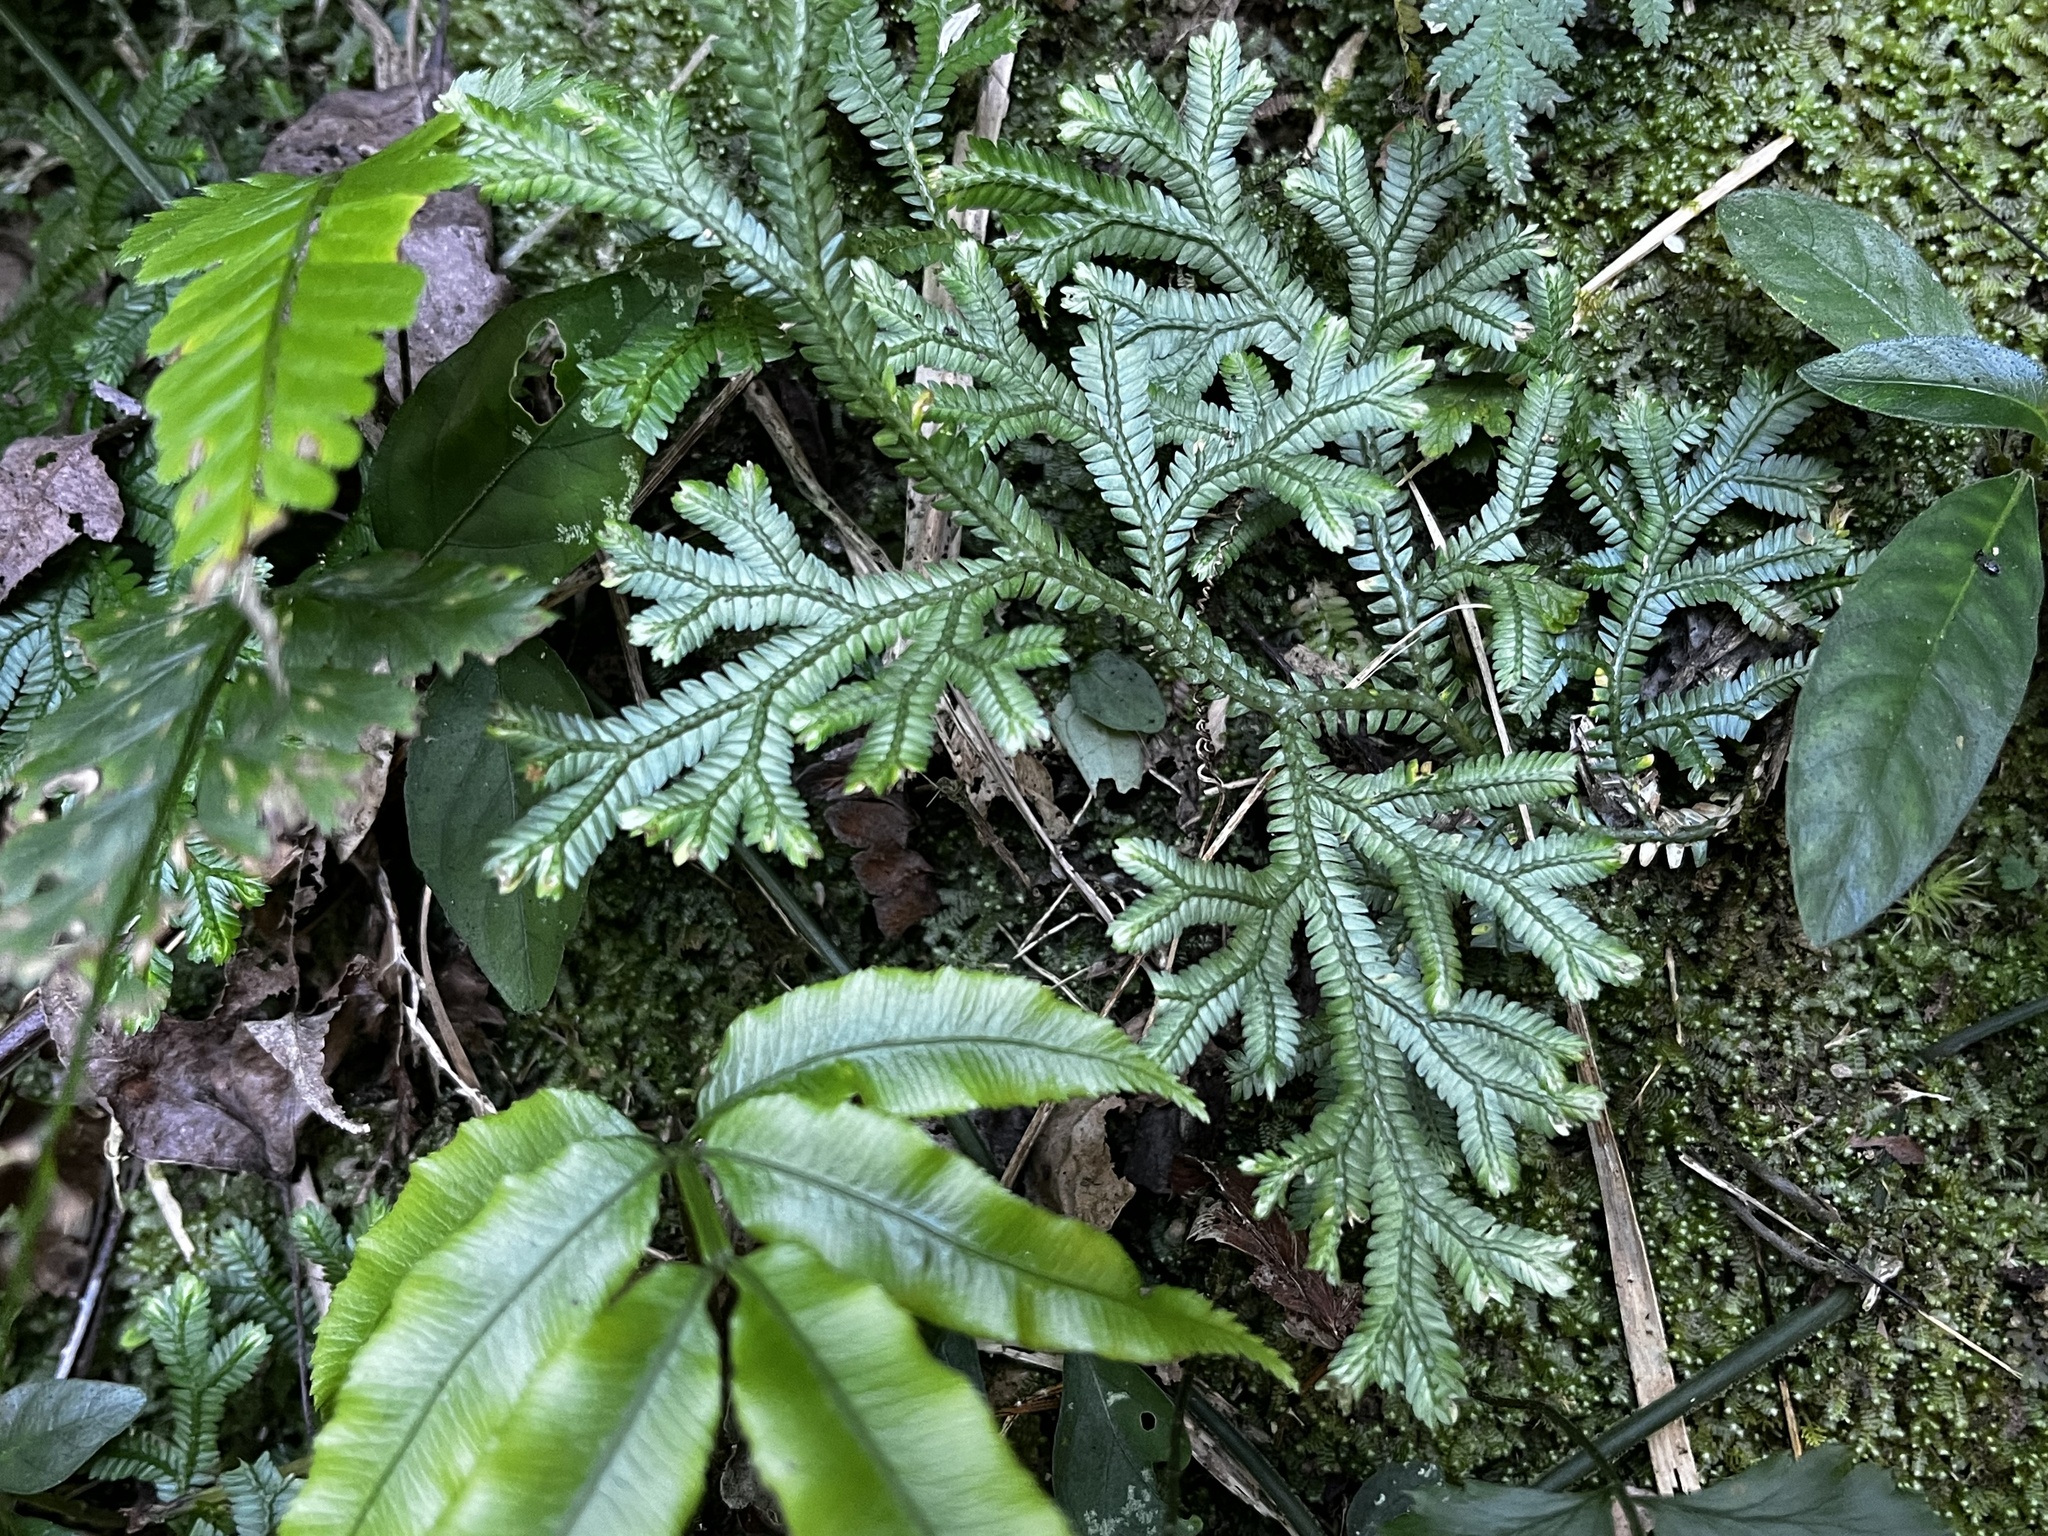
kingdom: Plantae
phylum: Tracheophyta
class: Lycopodiopsida
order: Selaginellales
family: Selaginellaceae
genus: Selaginella
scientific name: Selaginella doederleinii
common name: Greater selaginella
